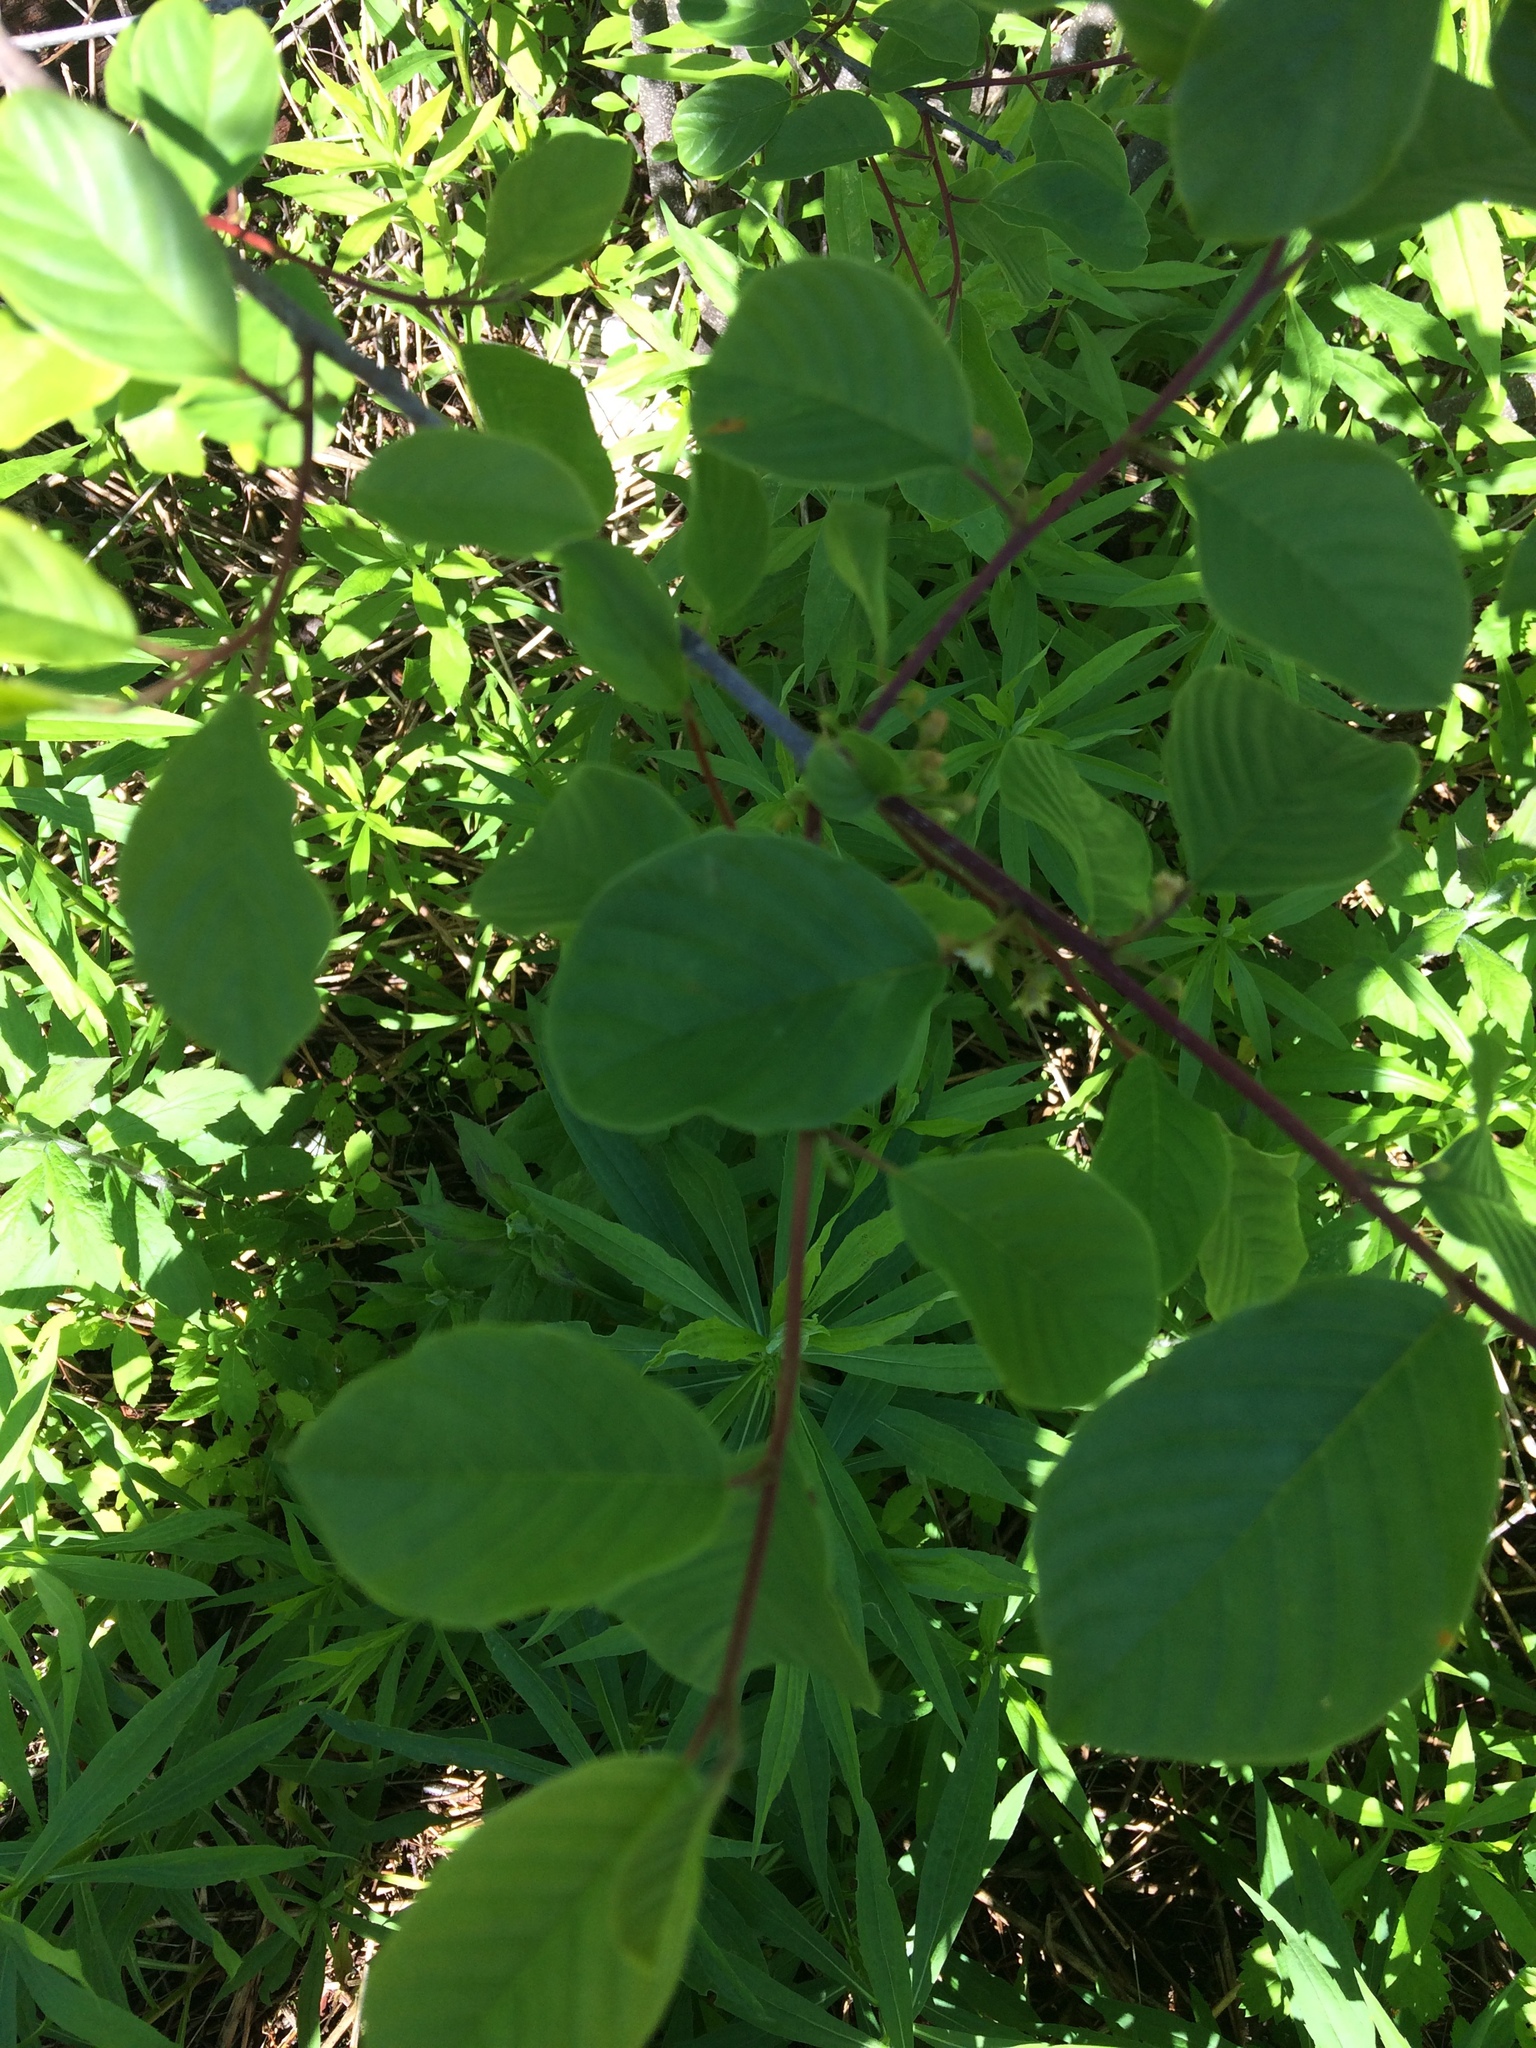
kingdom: Plantae
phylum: Tracheophyta
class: Magnoliopsida
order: Rosales
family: Rhamnaceae
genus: Frangula
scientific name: Frangula alnus
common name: Alder buckthorn
